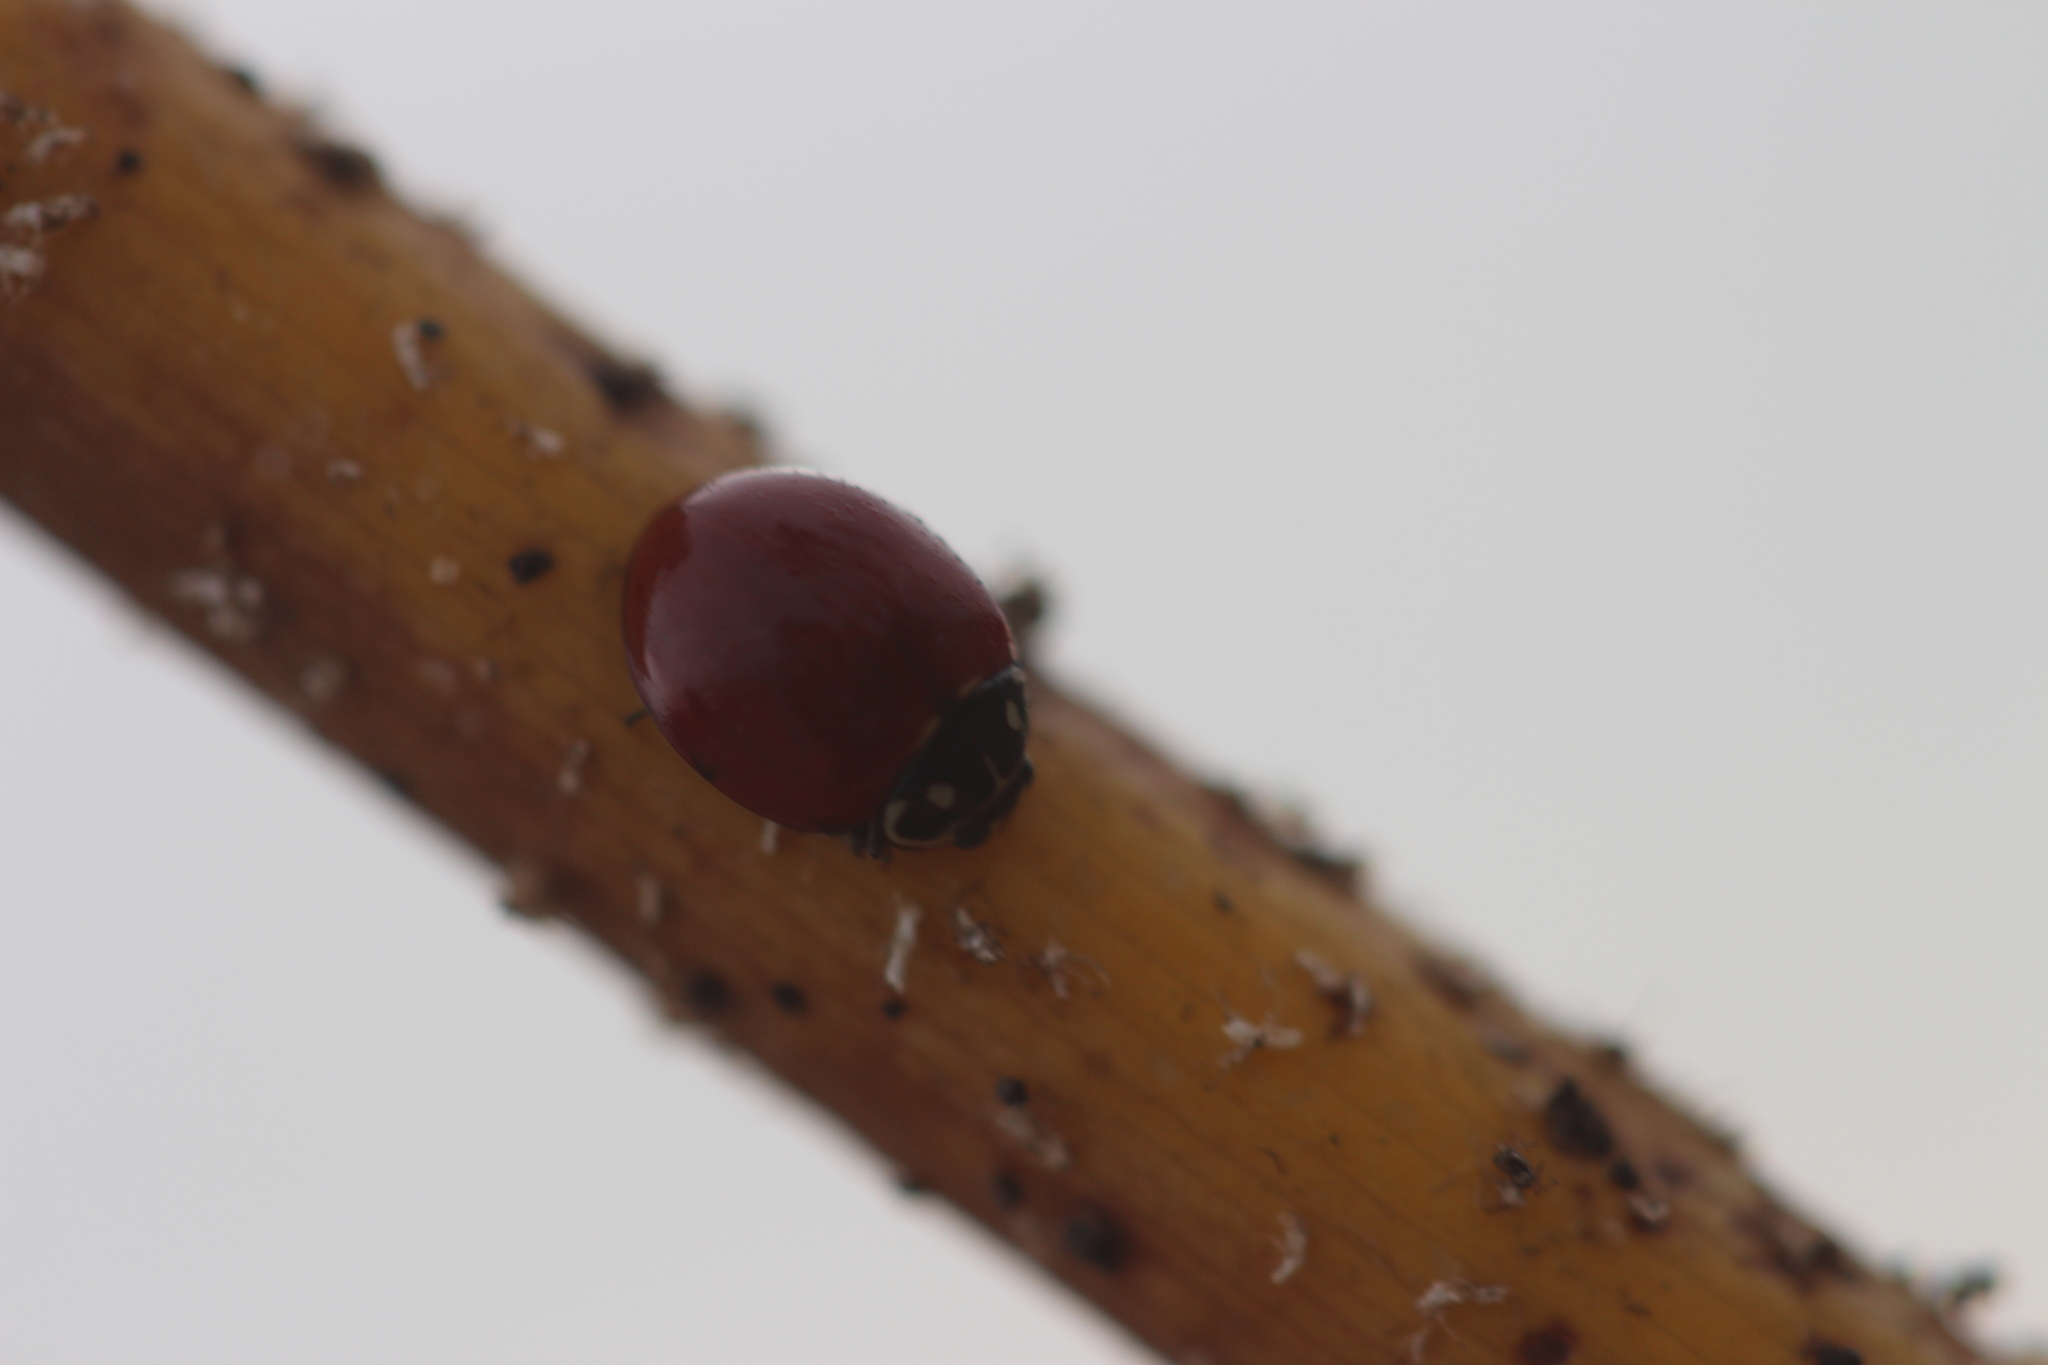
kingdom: Animalia
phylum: Arthropoda
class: Insecta
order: Coleoptera
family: Coccinellidae
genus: Cycloneda
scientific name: Cycloneda sanguinea
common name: Ladybird beetle
